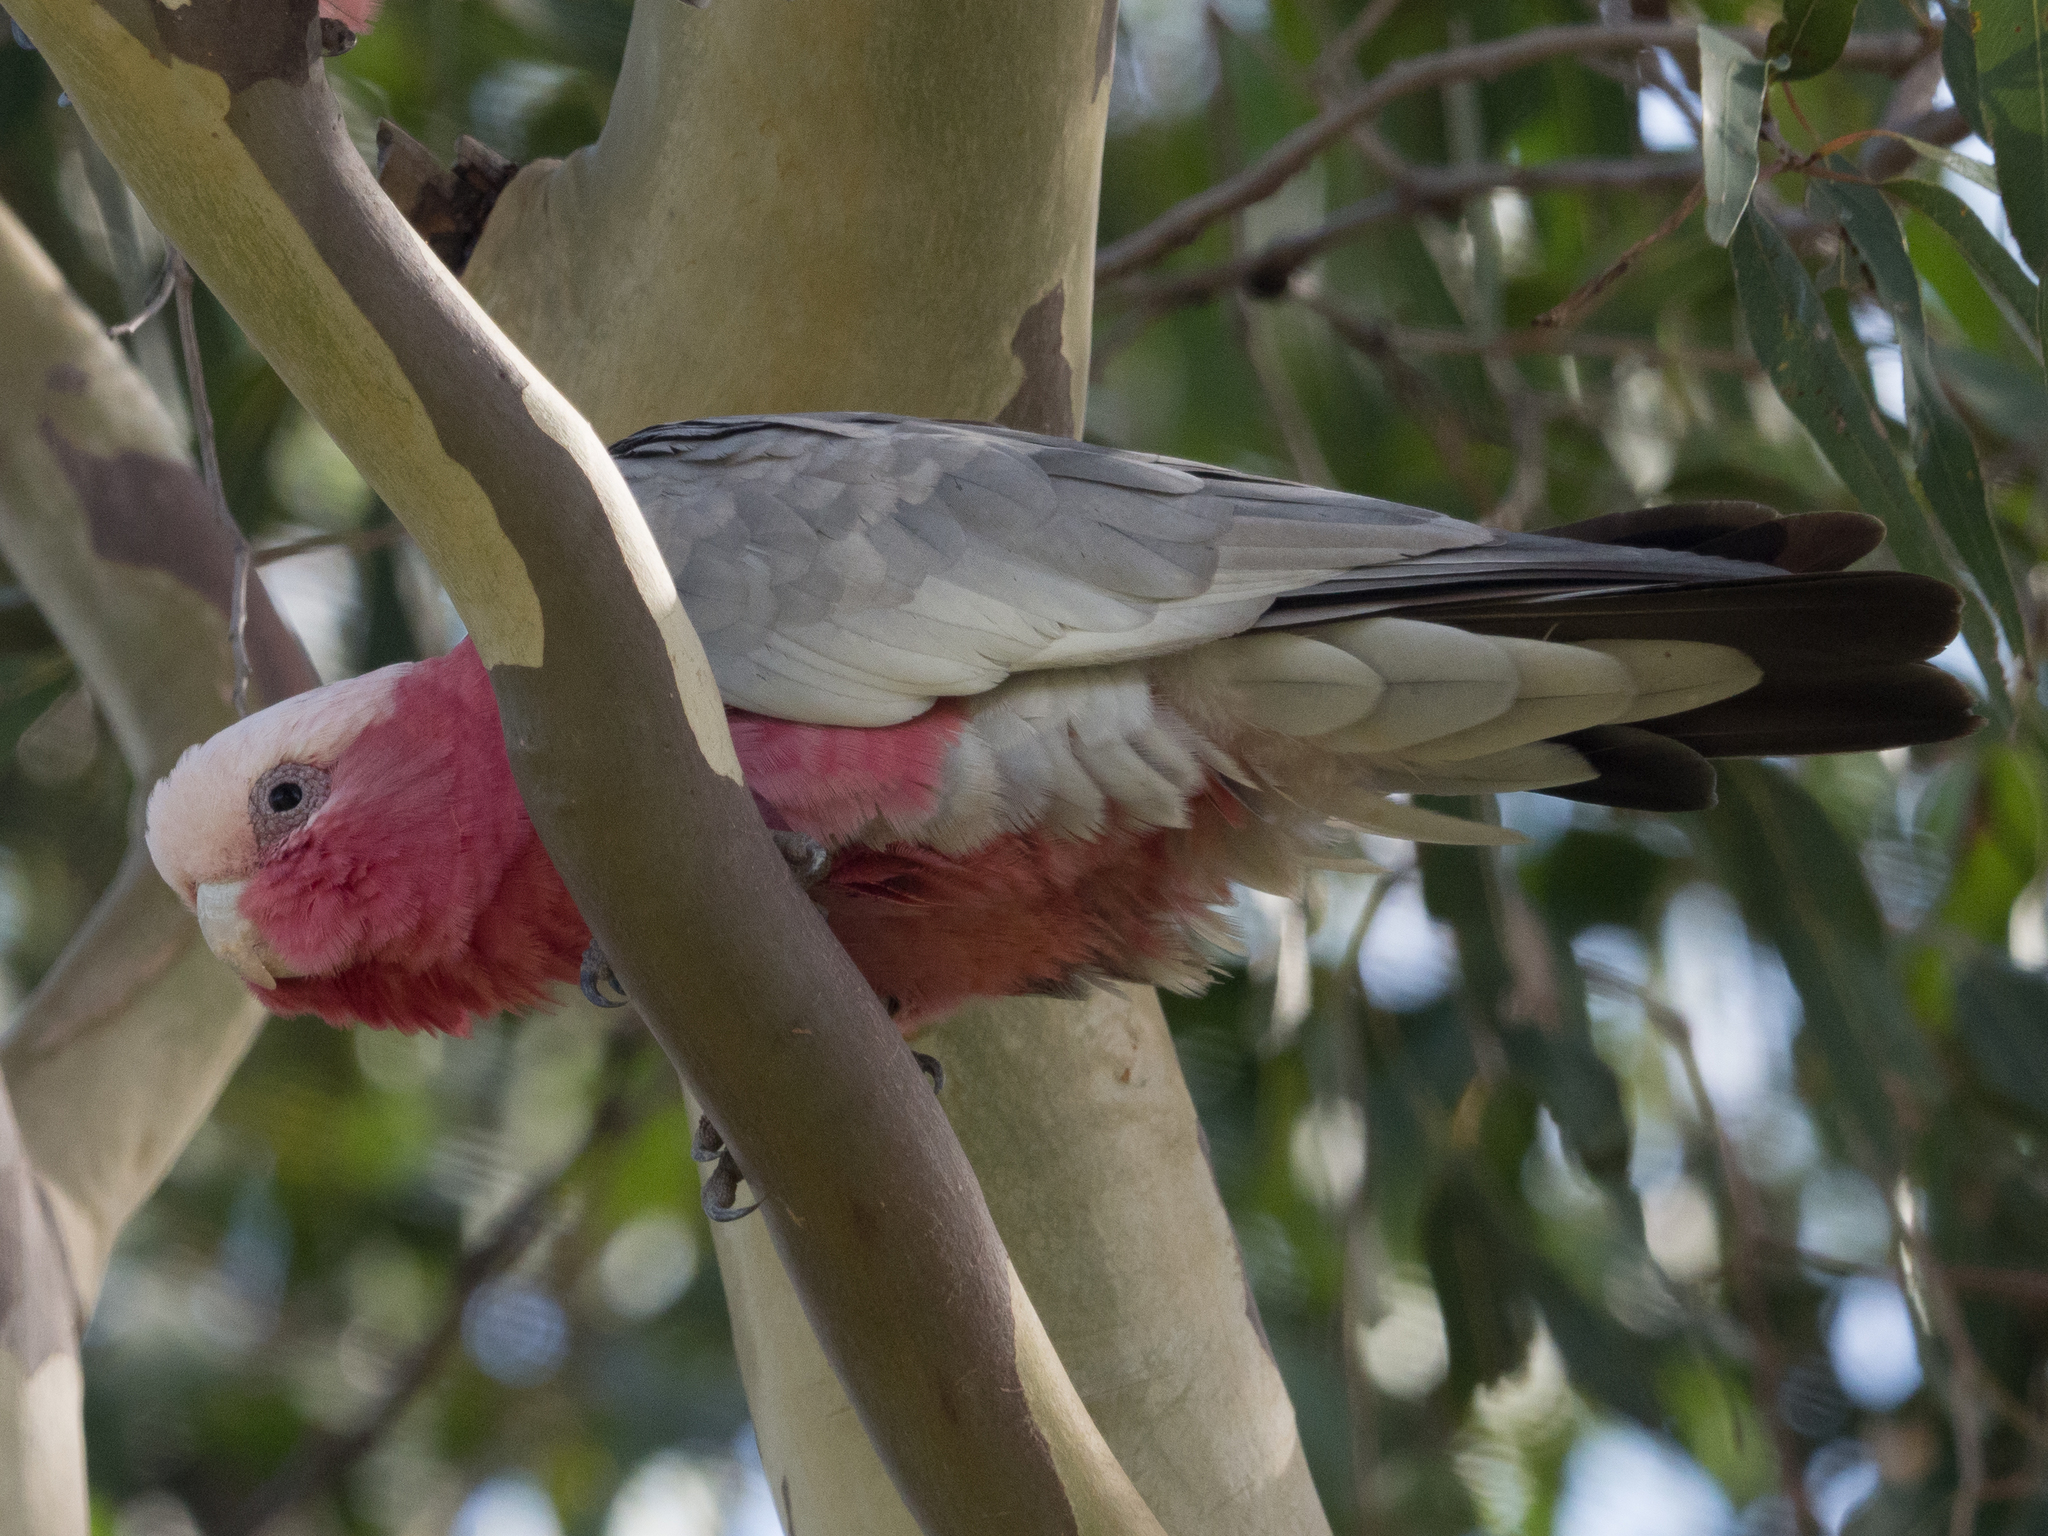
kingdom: Animalia
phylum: Chordata
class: Aves
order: Psittaciformes
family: Psittacidae
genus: Eolophus
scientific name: Eolophus roseicapilla
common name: Galah
